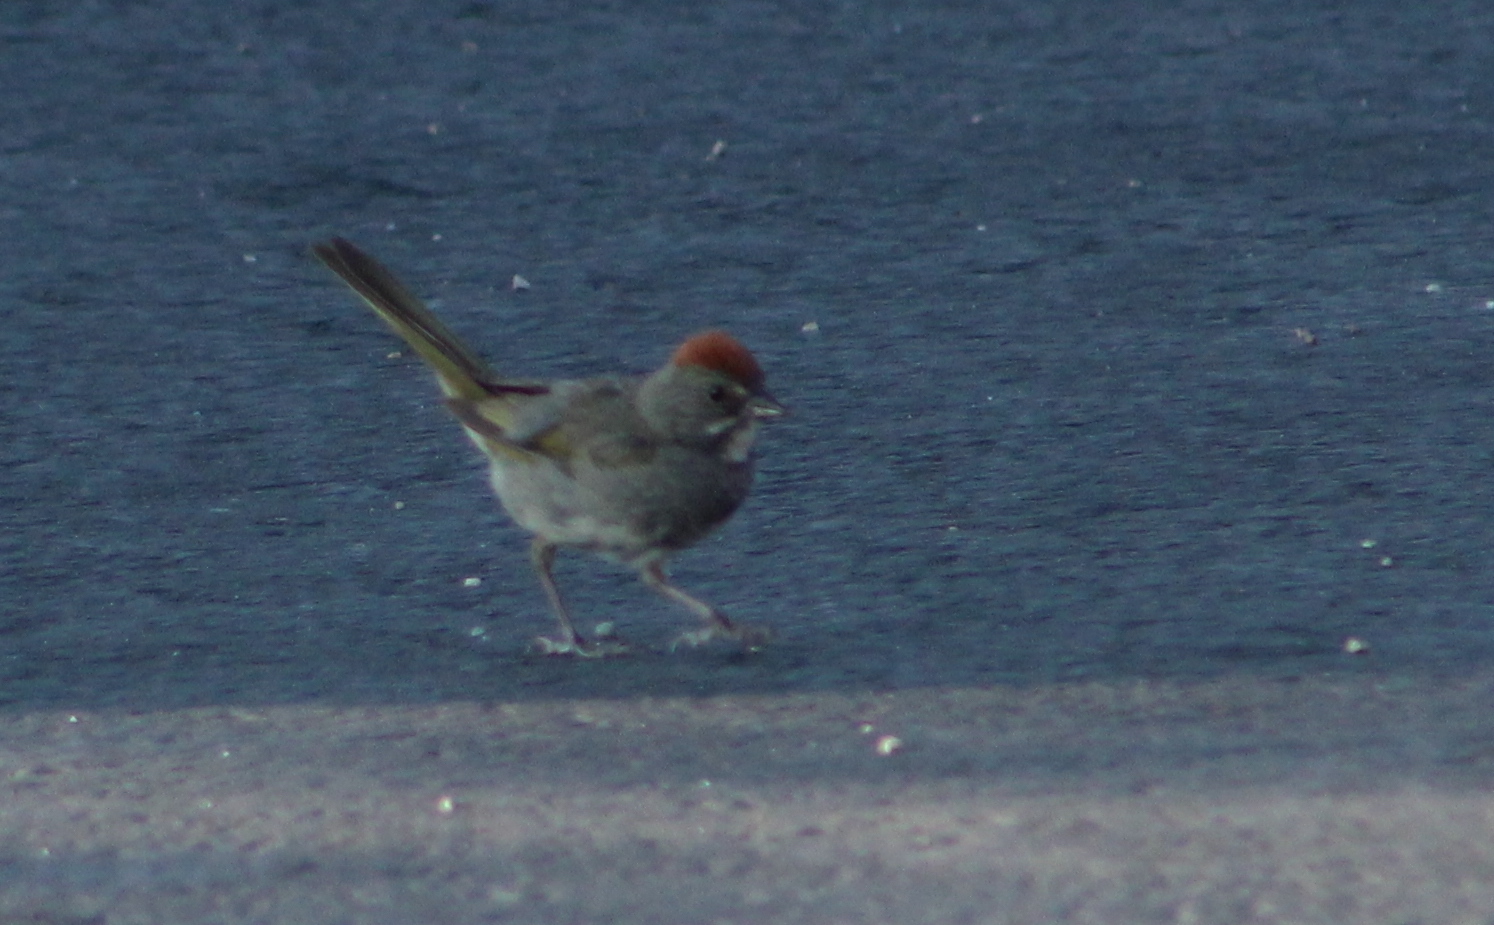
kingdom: Animalia
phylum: Chordata
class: Aves
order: Passeriformes
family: Passerellidae
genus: Pipilo
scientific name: Pipilo chlorurus
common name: Green-tailed towhee
